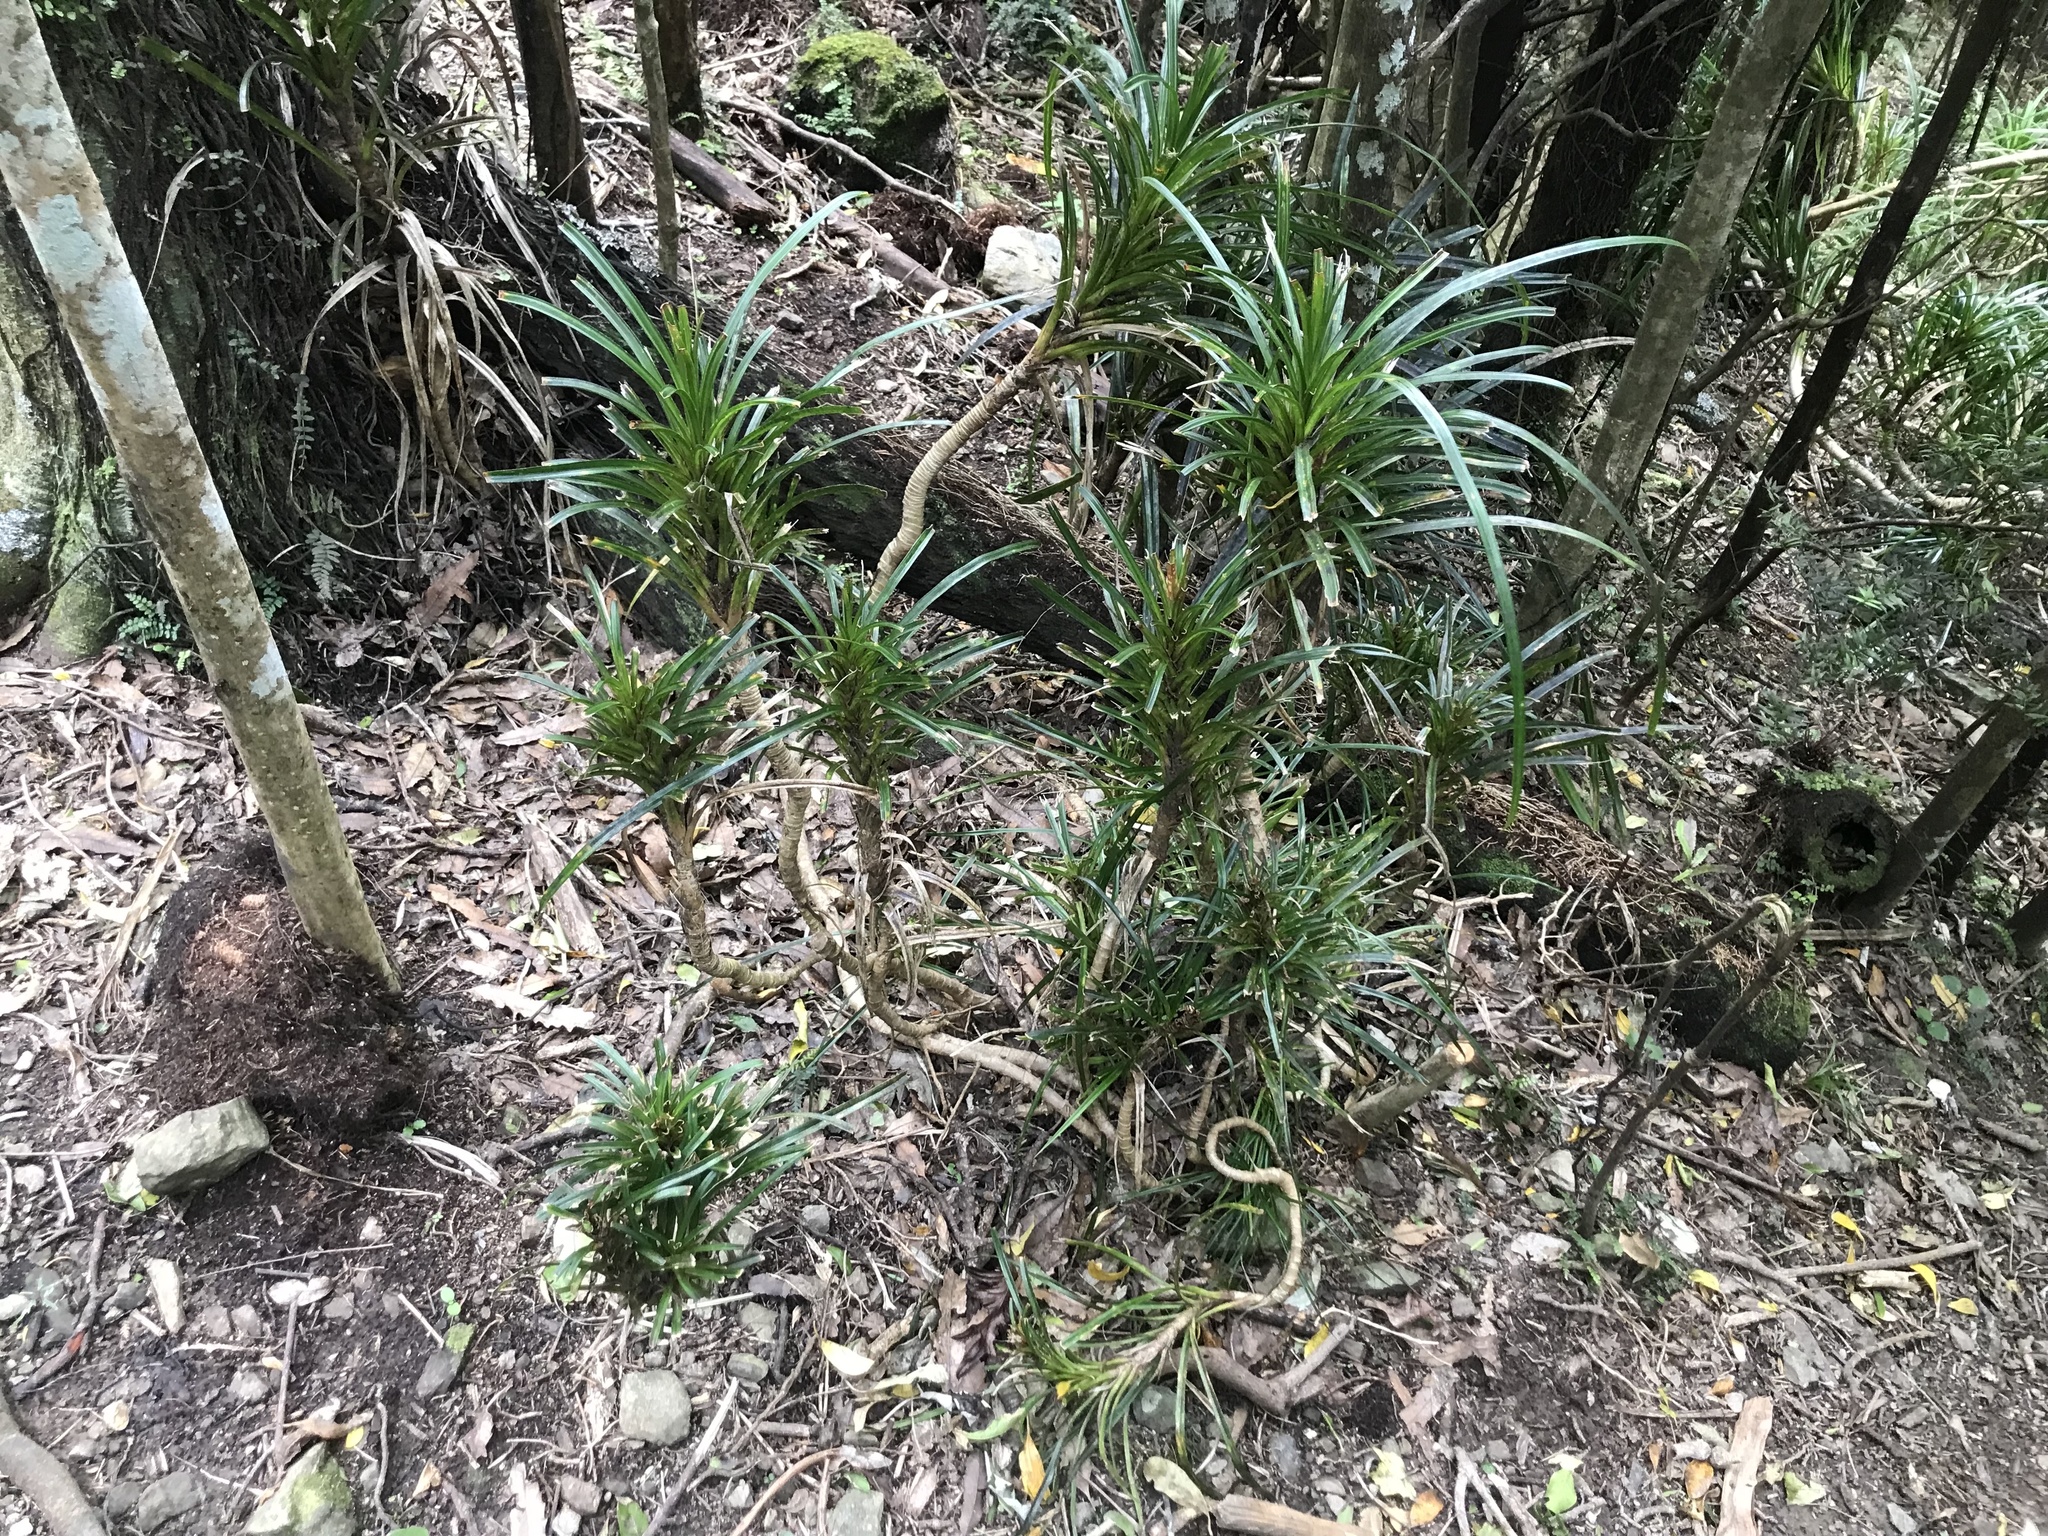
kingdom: Plantae
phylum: Tracheophyta
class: Liliopsida
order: Pandanales
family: Pandanaceae
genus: Freycinetia
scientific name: Freycinetia banksii
